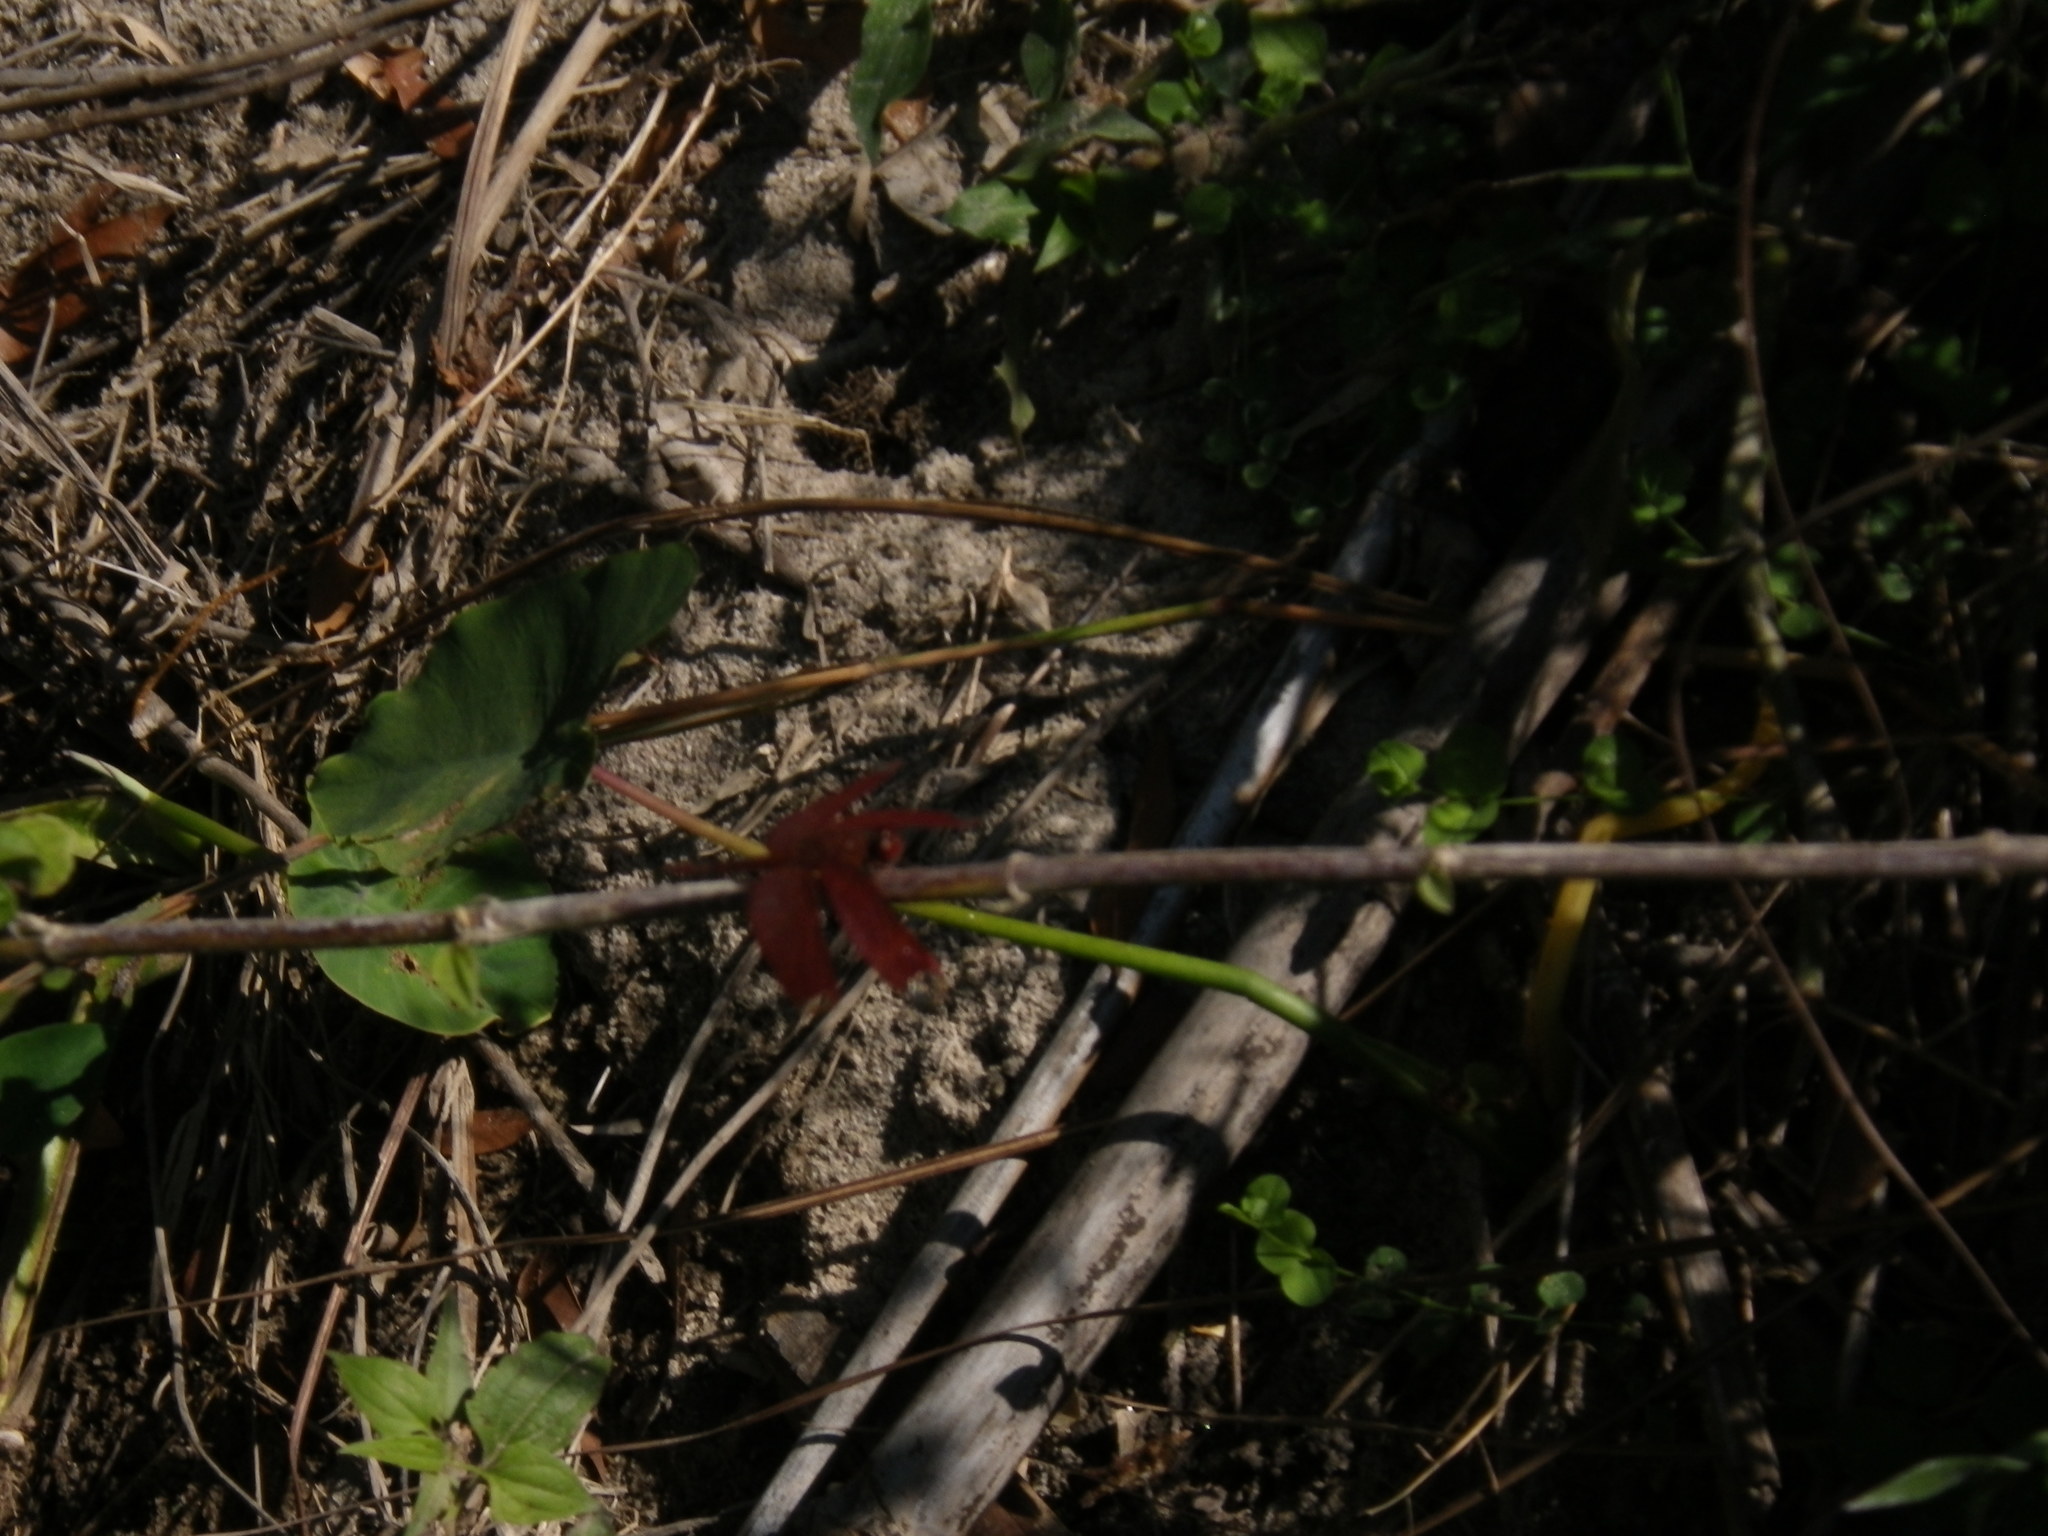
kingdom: Animalia
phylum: Arthropoda
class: Insecta
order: Odonata
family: Libellulidae
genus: Neurothemis
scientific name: Neurothemis fulvia
